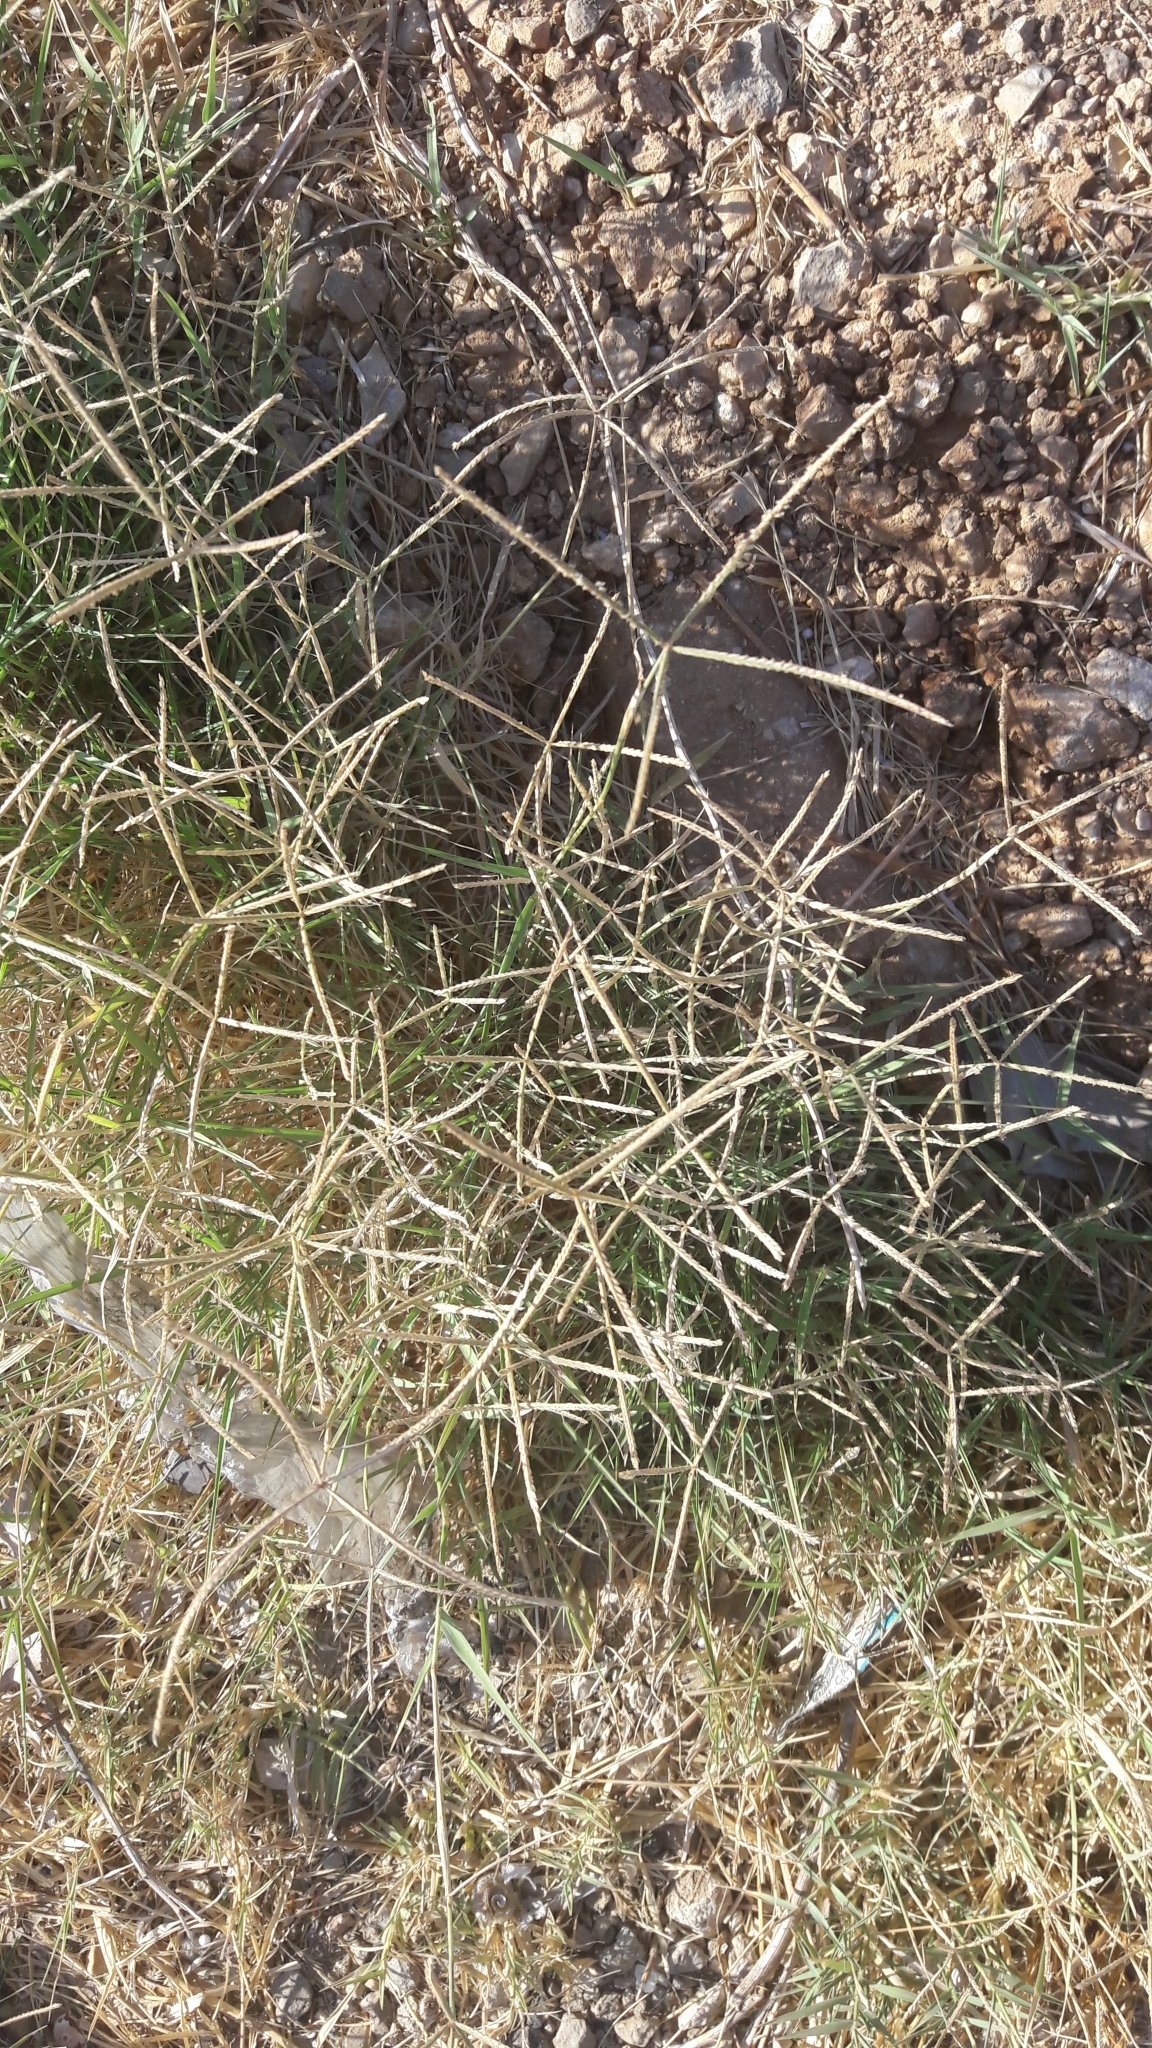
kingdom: Plantae
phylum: Tracheophyta
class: Liliopsida
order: Poales
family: Poaceae
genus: Cynodon
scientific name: Cynodon dactylon
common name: Bermuda grass
